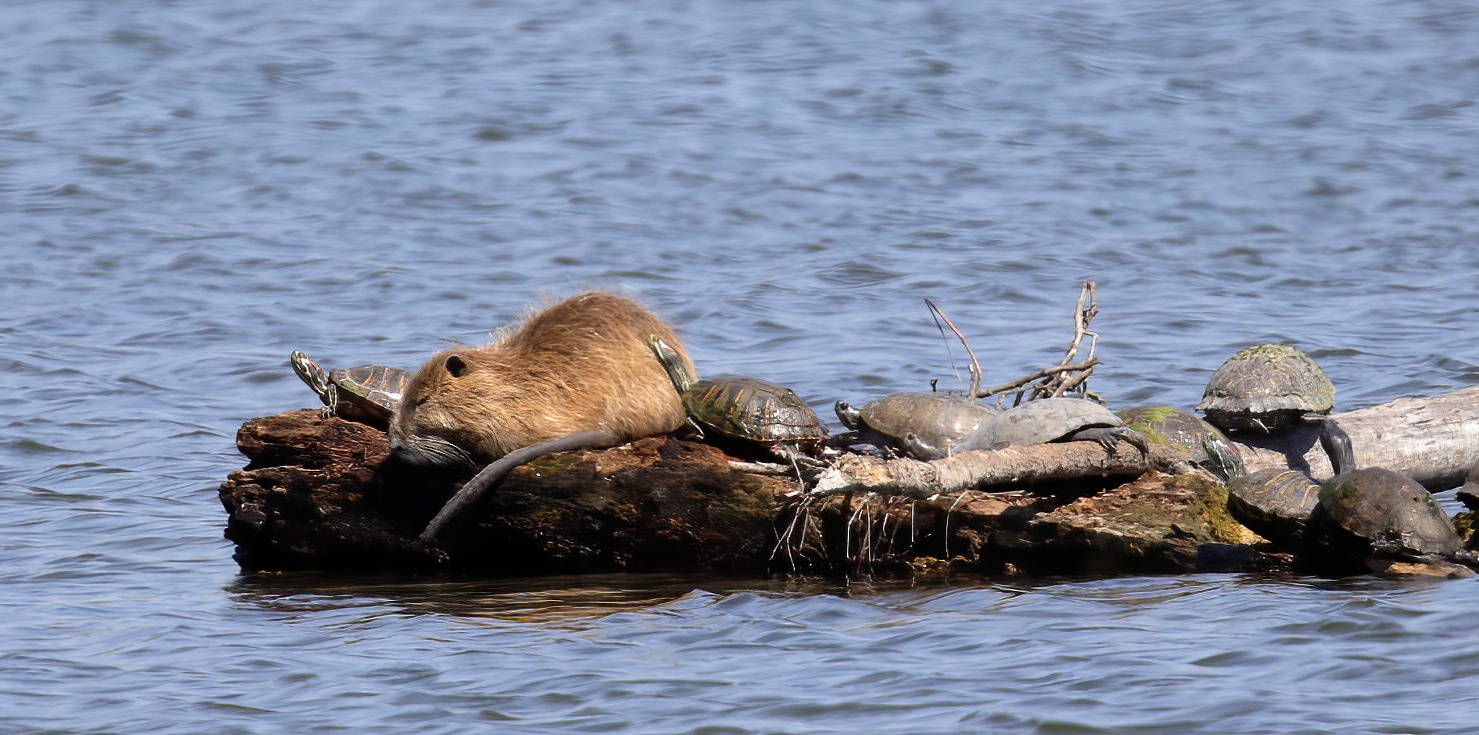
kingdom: Animalia
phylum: Chordata
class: Mammalia
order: Rodentia
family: Myocastoridae
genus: Myocastor
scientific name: Myocastor coypus
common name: Coypu
